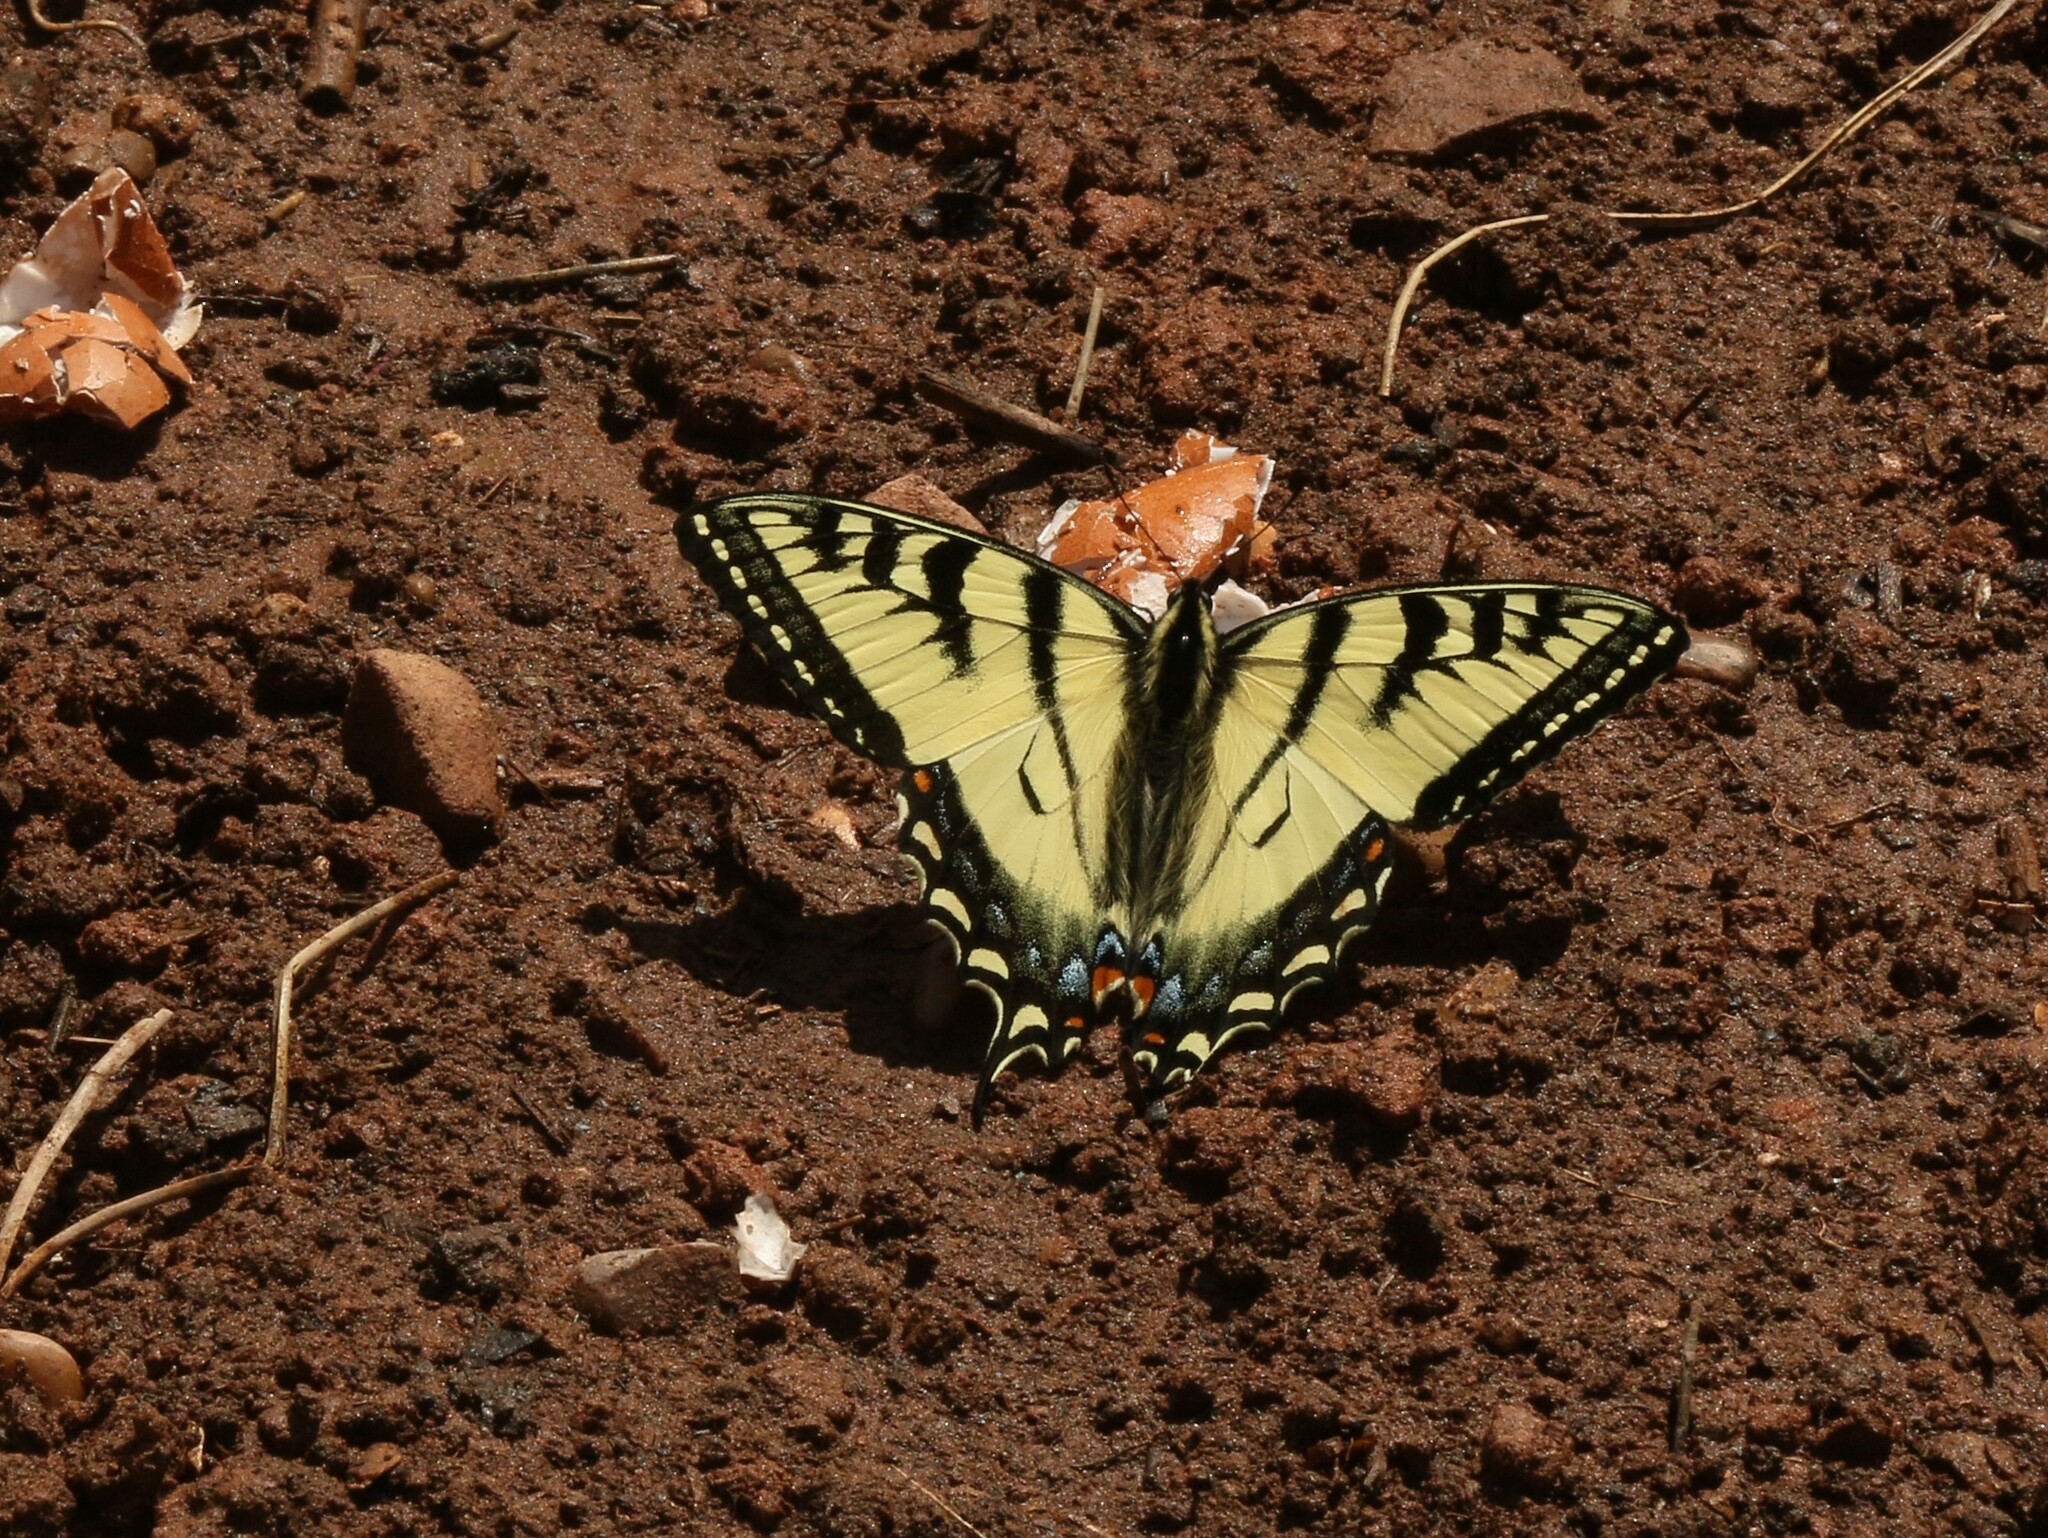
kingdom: Animalia
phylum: Arthropoda
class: Insecta
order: Lepidoptera
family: Papilionidae
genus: Papilio
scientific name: Papilio canadensis
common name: Canadian tiger swallowtail
